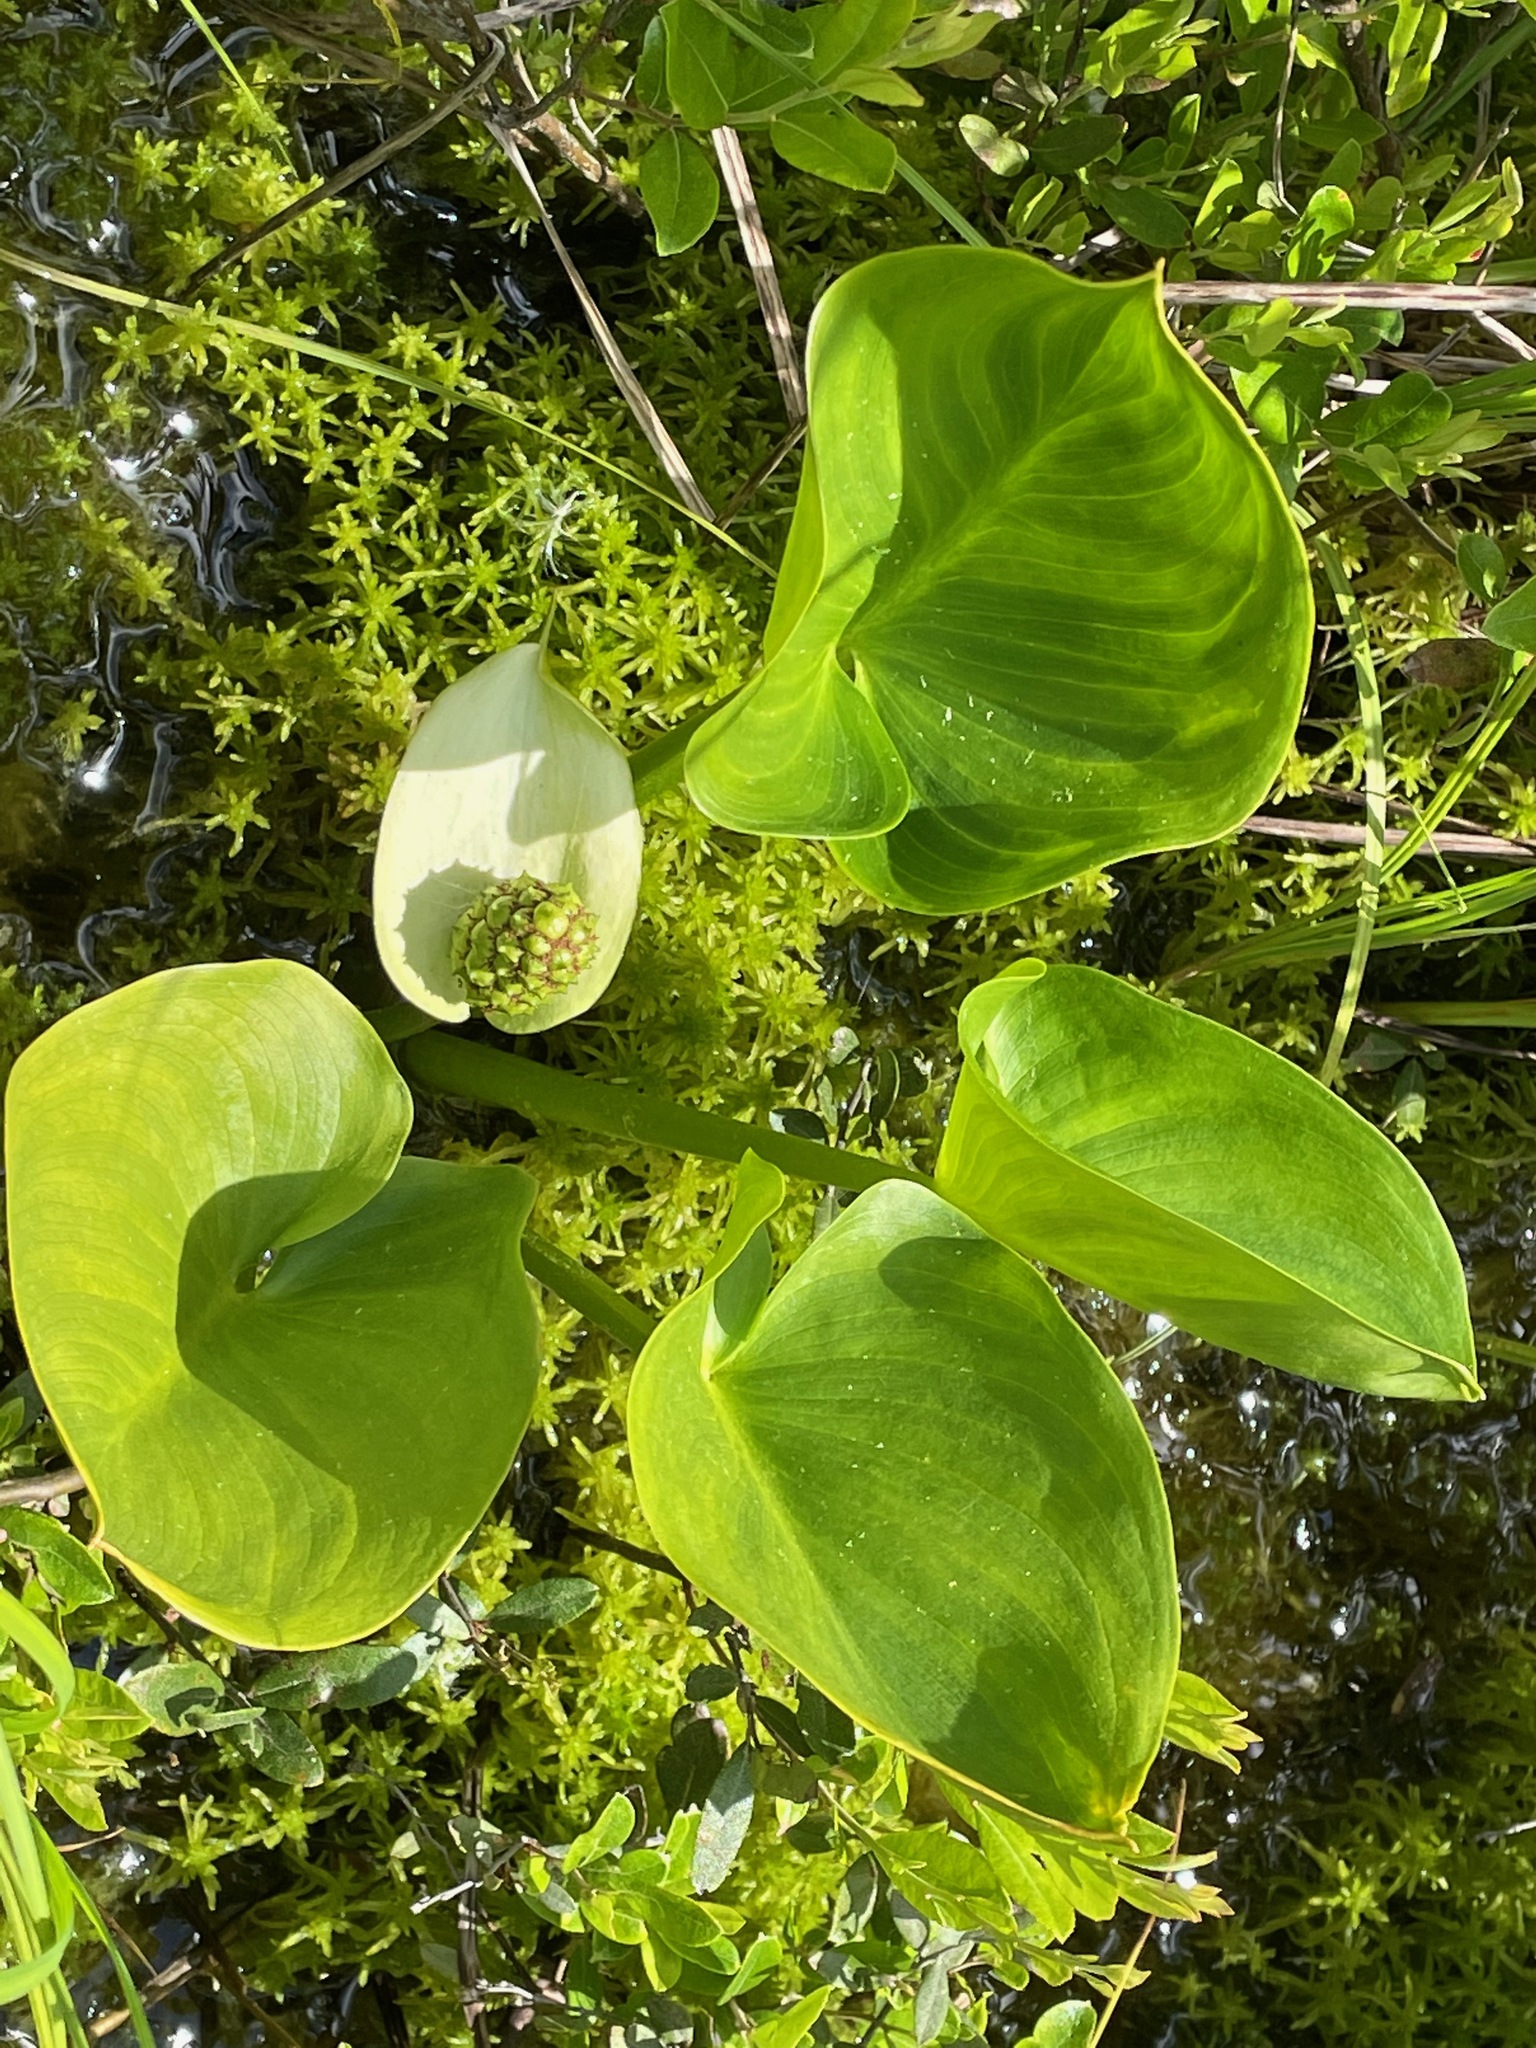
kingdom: Plantae
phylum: Tracheophyta
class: Liliopsida
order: Alismatales
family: Araceae
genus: Calla
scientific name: Calla palustris
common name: Bog arum
